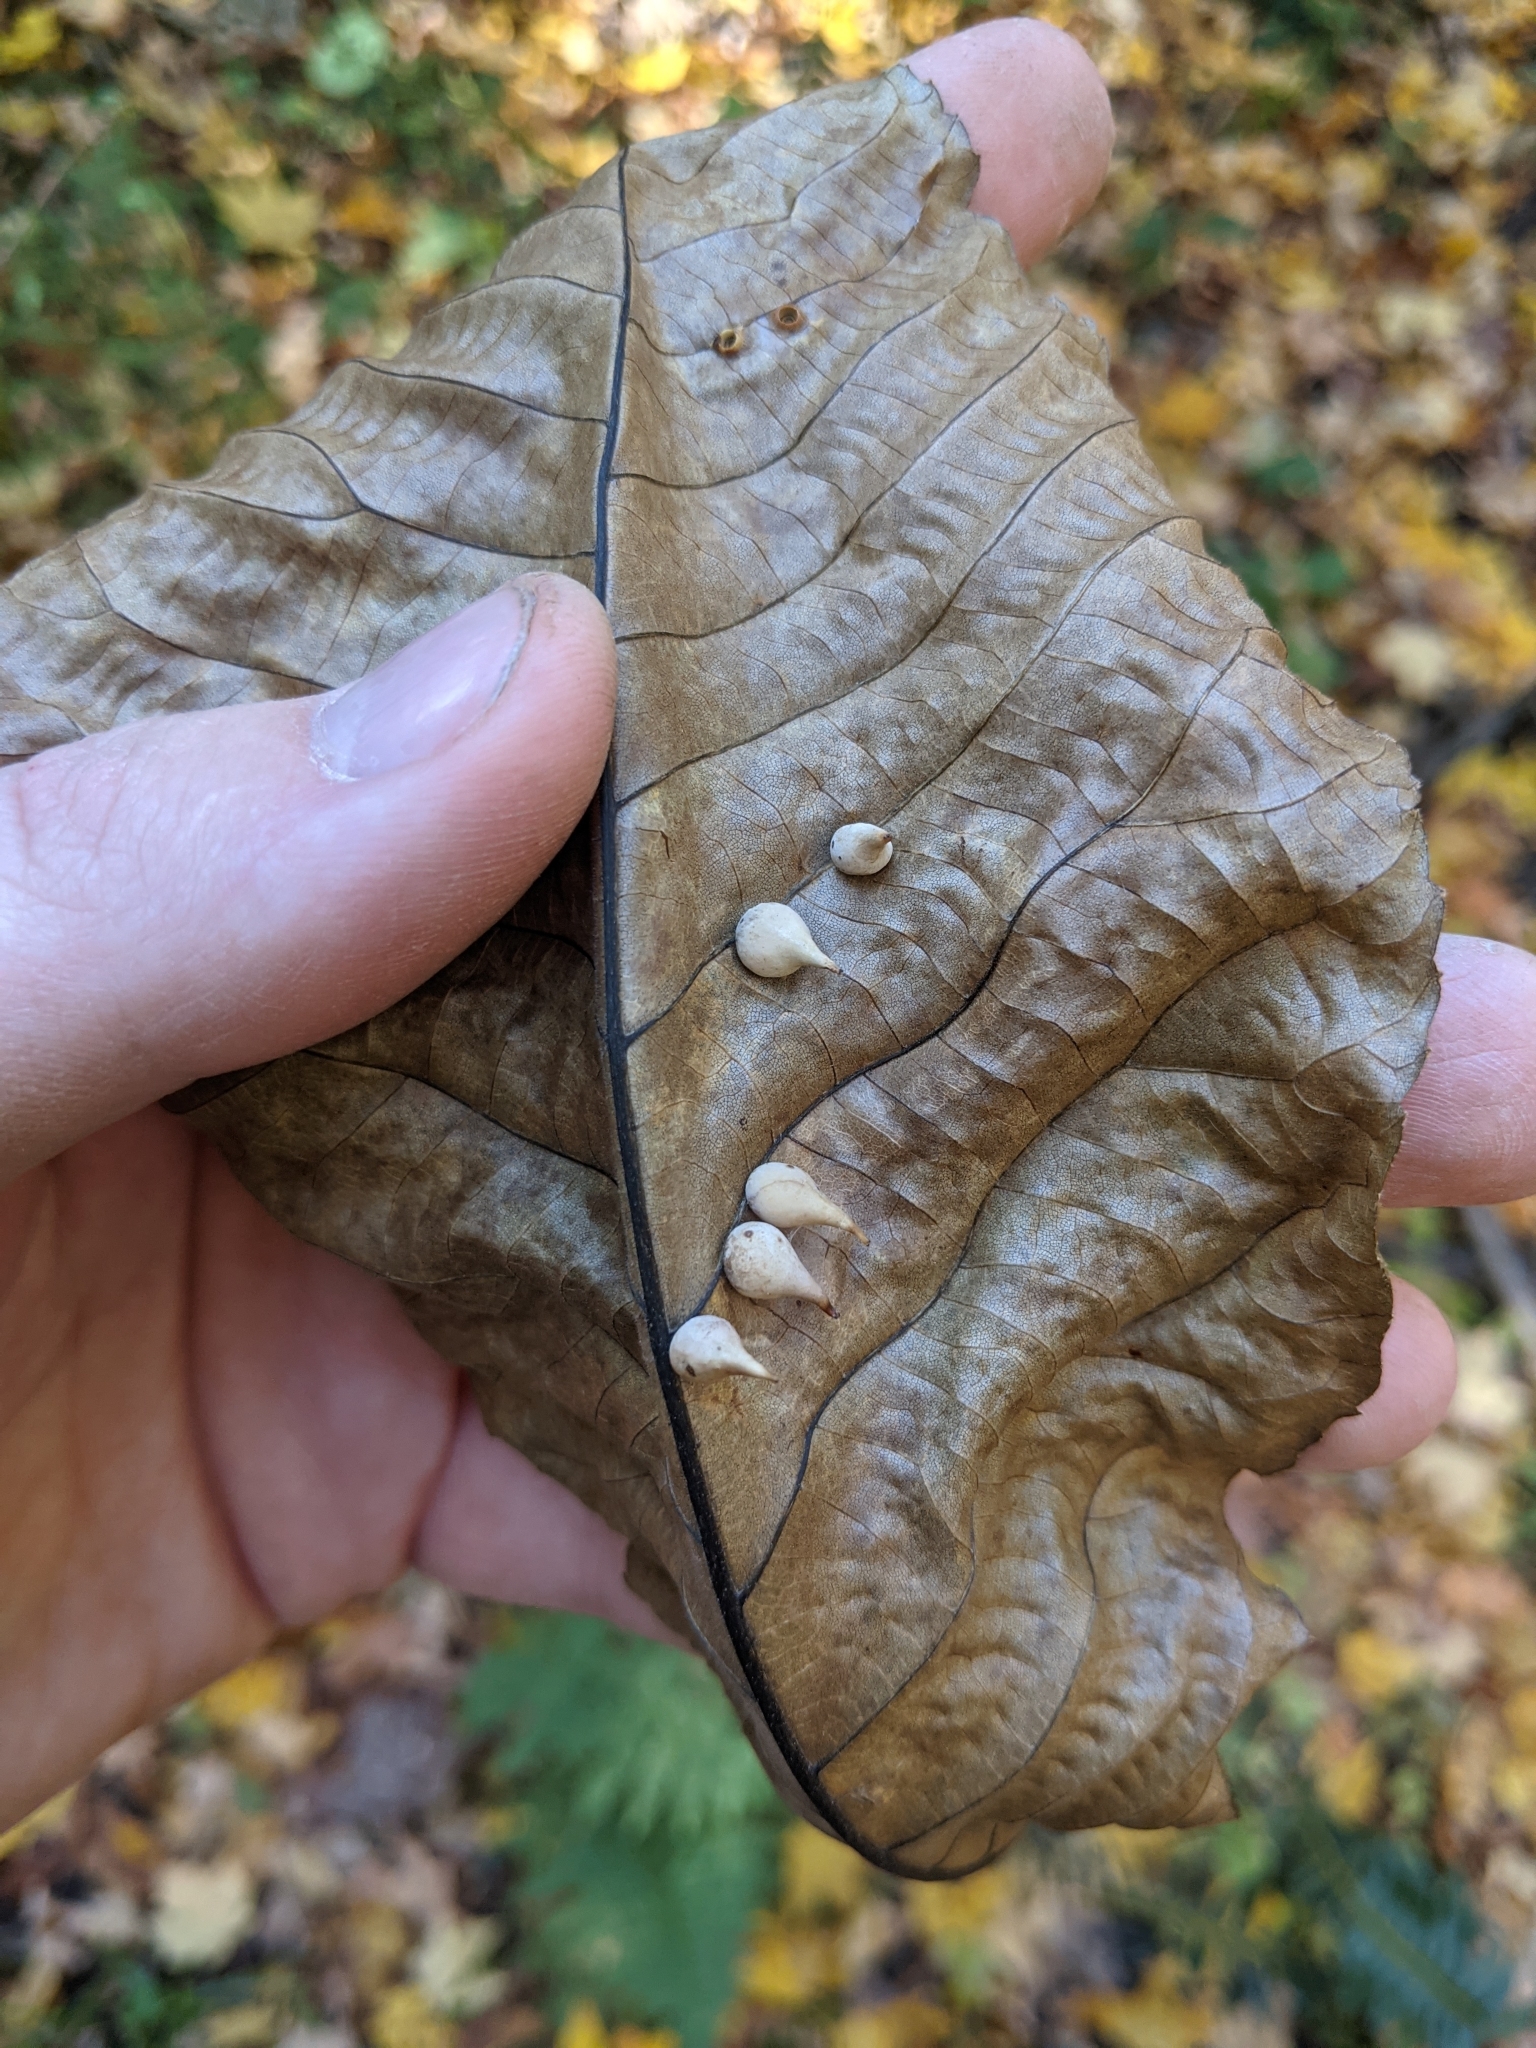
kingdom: Animalia
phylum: Arthropoda
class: Insecta
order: Diptera
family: Cecidomyiidae
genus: Caryomyia
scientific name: Caryomyia caryaecola
